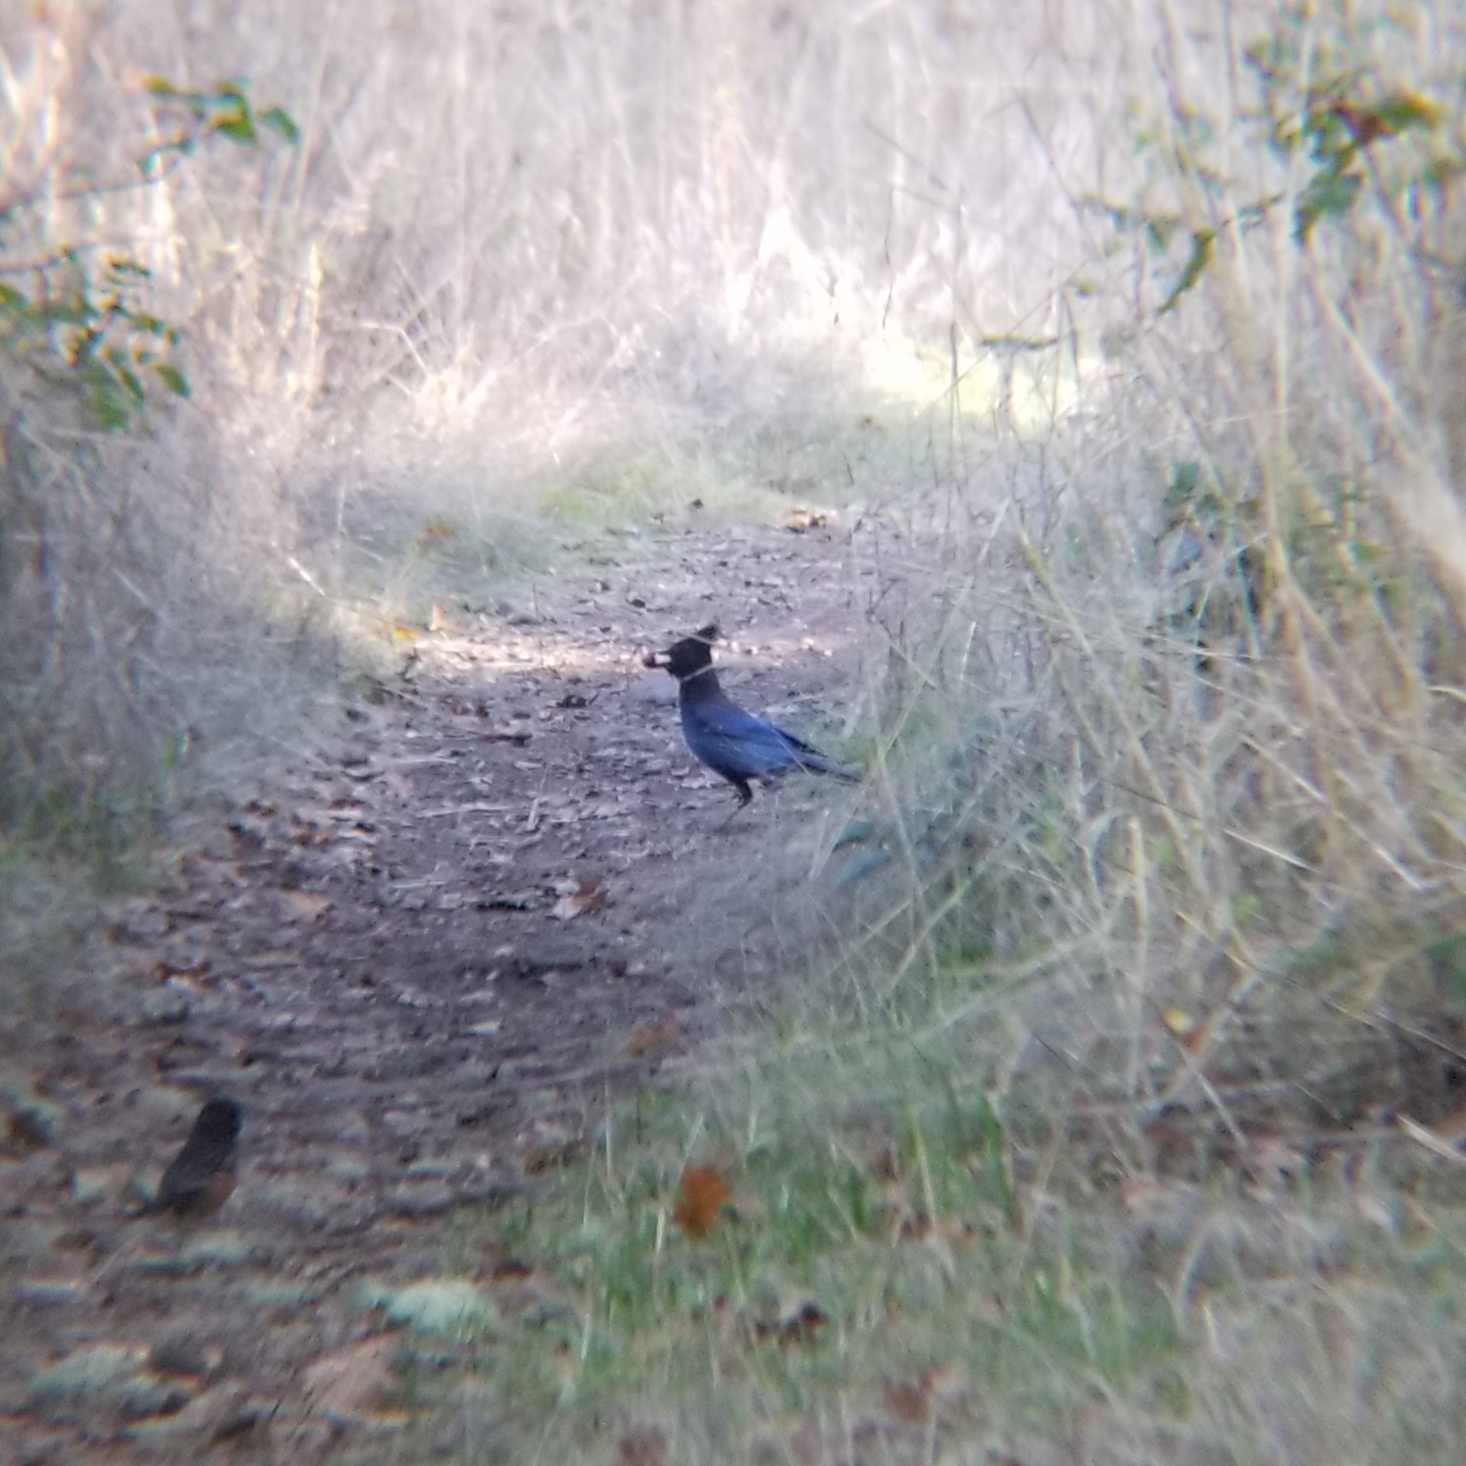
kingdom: Animalia
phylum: Chordata
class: Aves
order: Passeriformes
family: Corvidae
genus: Cyanocitta
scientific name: Cyanocitta stelleri
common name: Steller's jay
